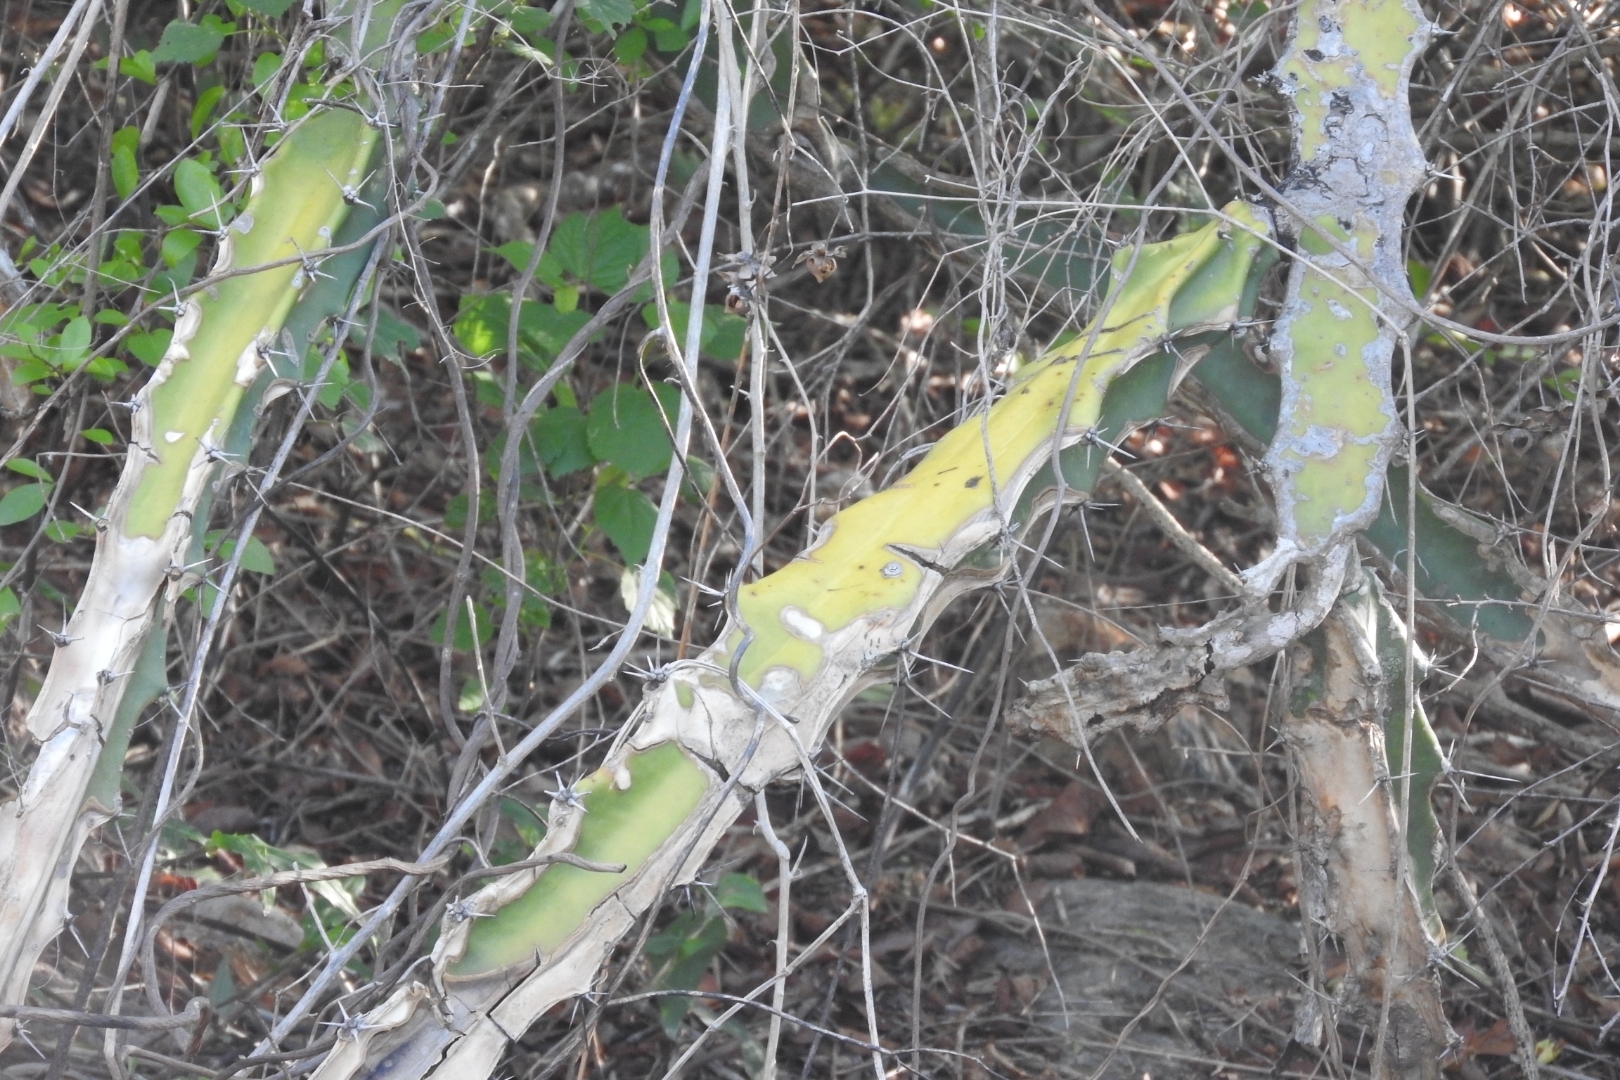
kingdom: Plantae
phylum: Tracheophyta
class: Magnoliopsida
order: Caryophyllales
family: Cactaceae
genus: Acanthocereus
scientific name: Acanthocereus tetragonus
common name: Triangle cactus
